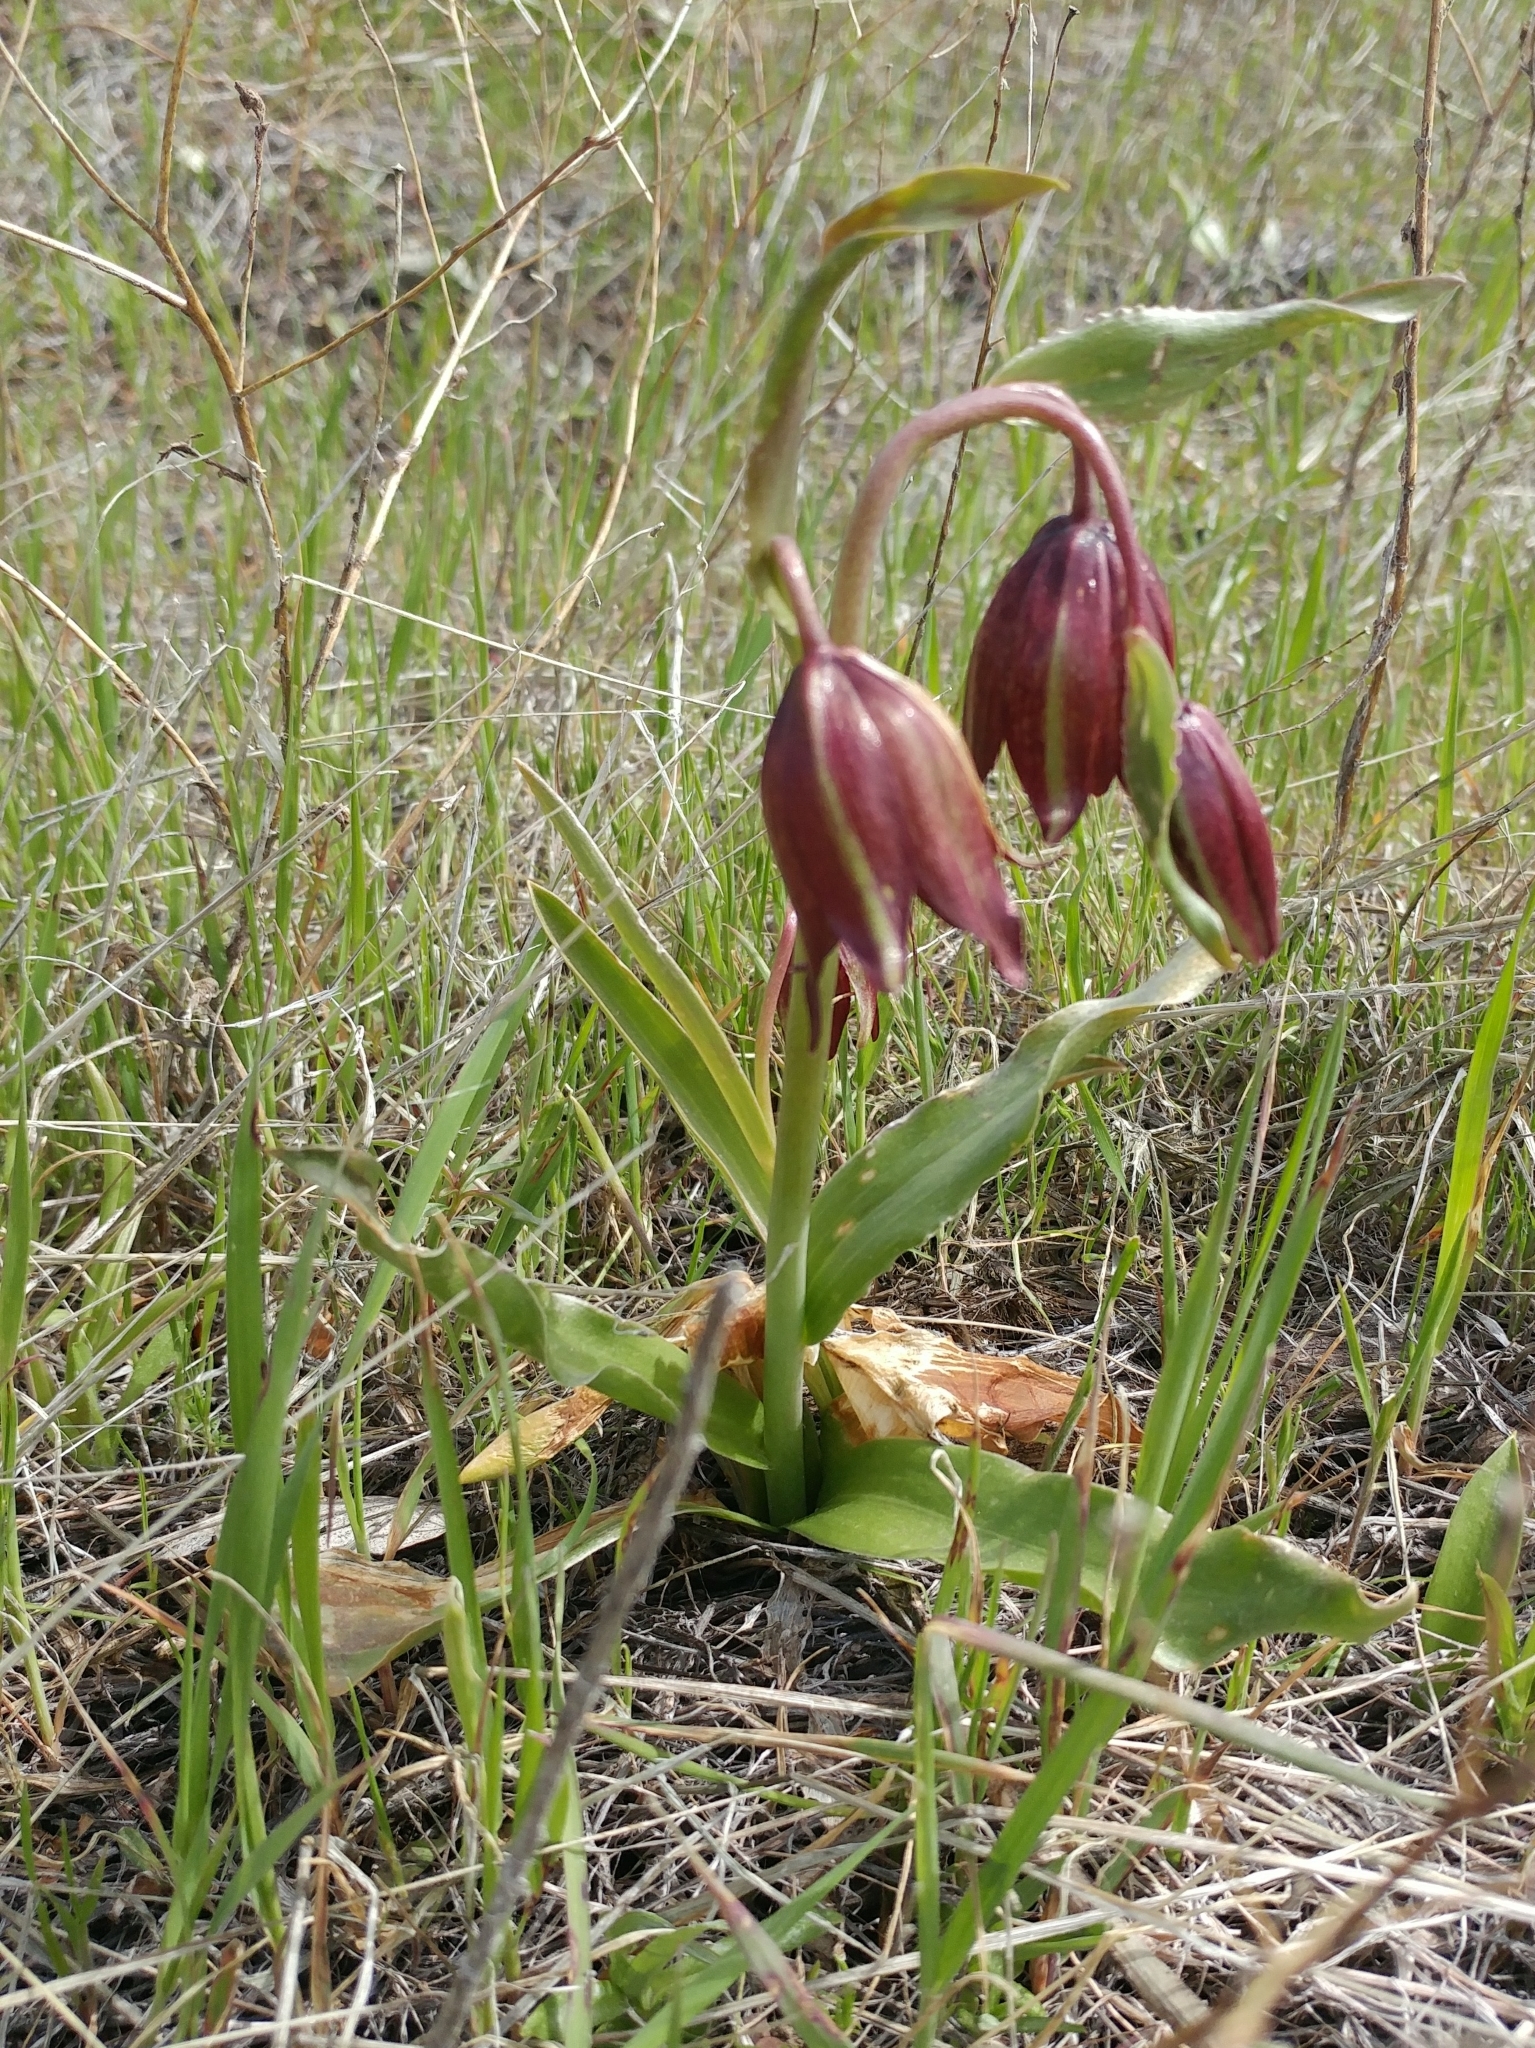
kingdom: Plantae
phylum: Tracheophyta
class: Liliopsida
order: Liliales
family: Liliaceae
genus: Fritillaria
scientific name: Fritillaria biflora
